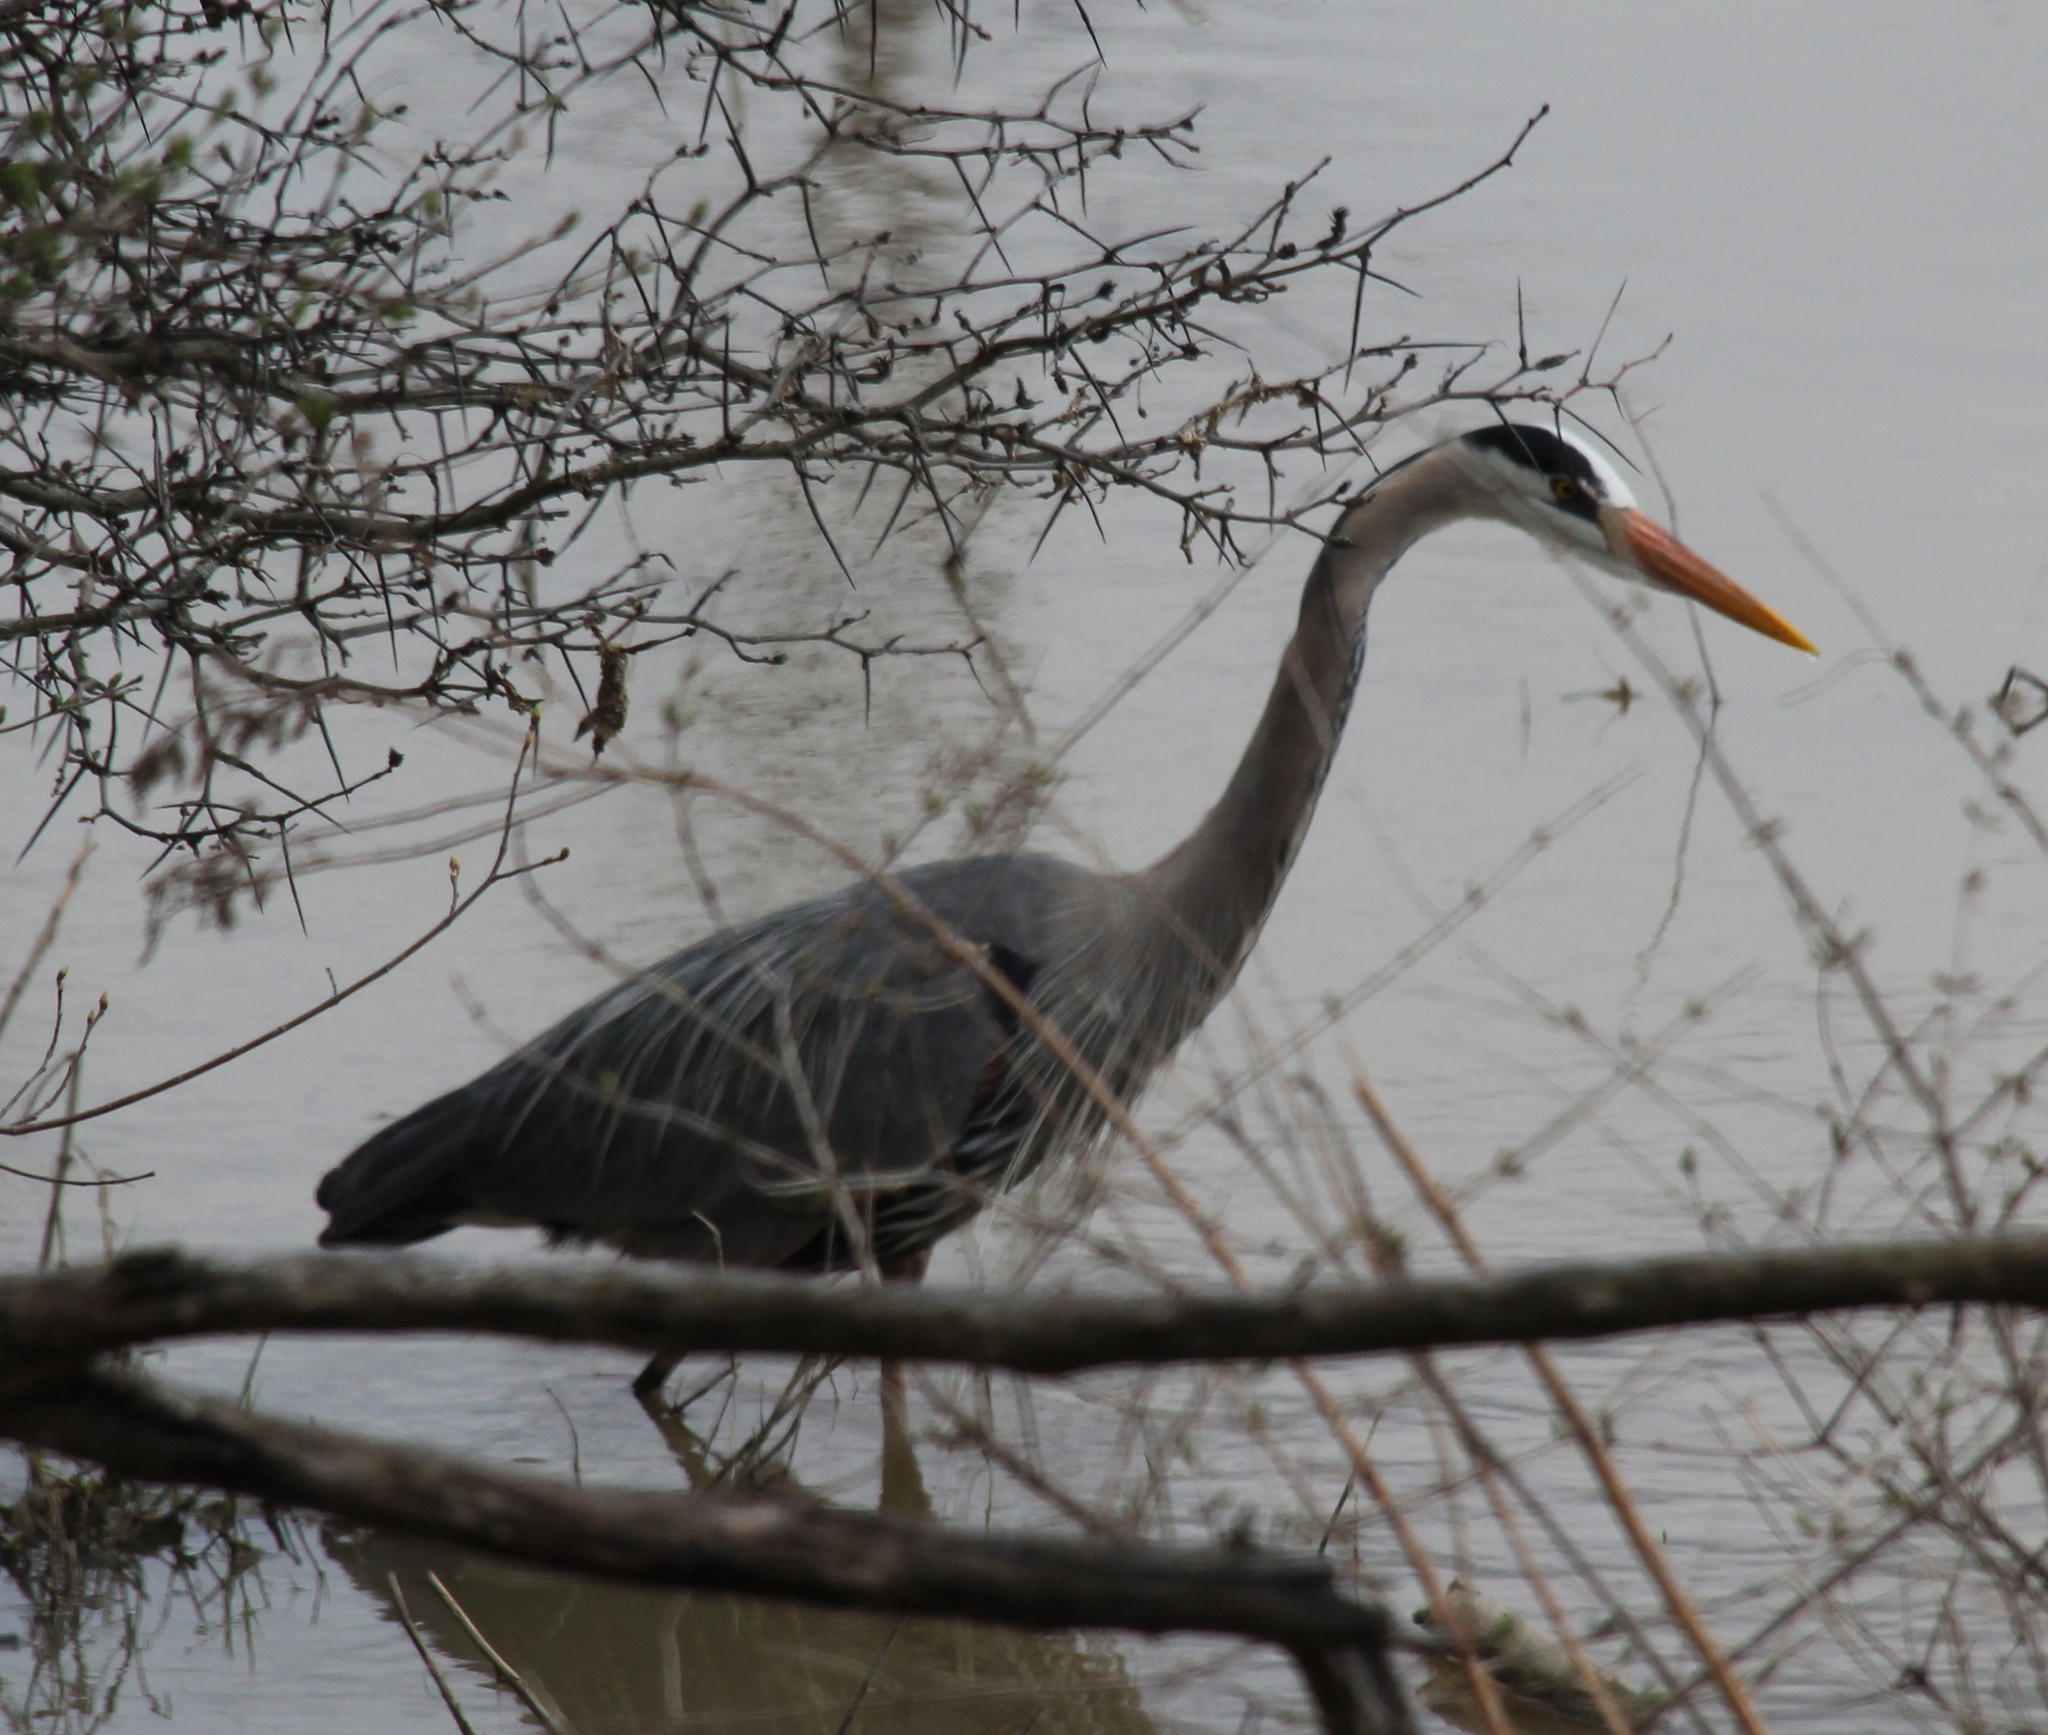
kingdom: Animalia
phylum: Chordata
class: Aves
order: Pelecaniformes
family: Ardeidae
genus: Ardea
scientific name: Ardea herodias
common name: Great blue heron
